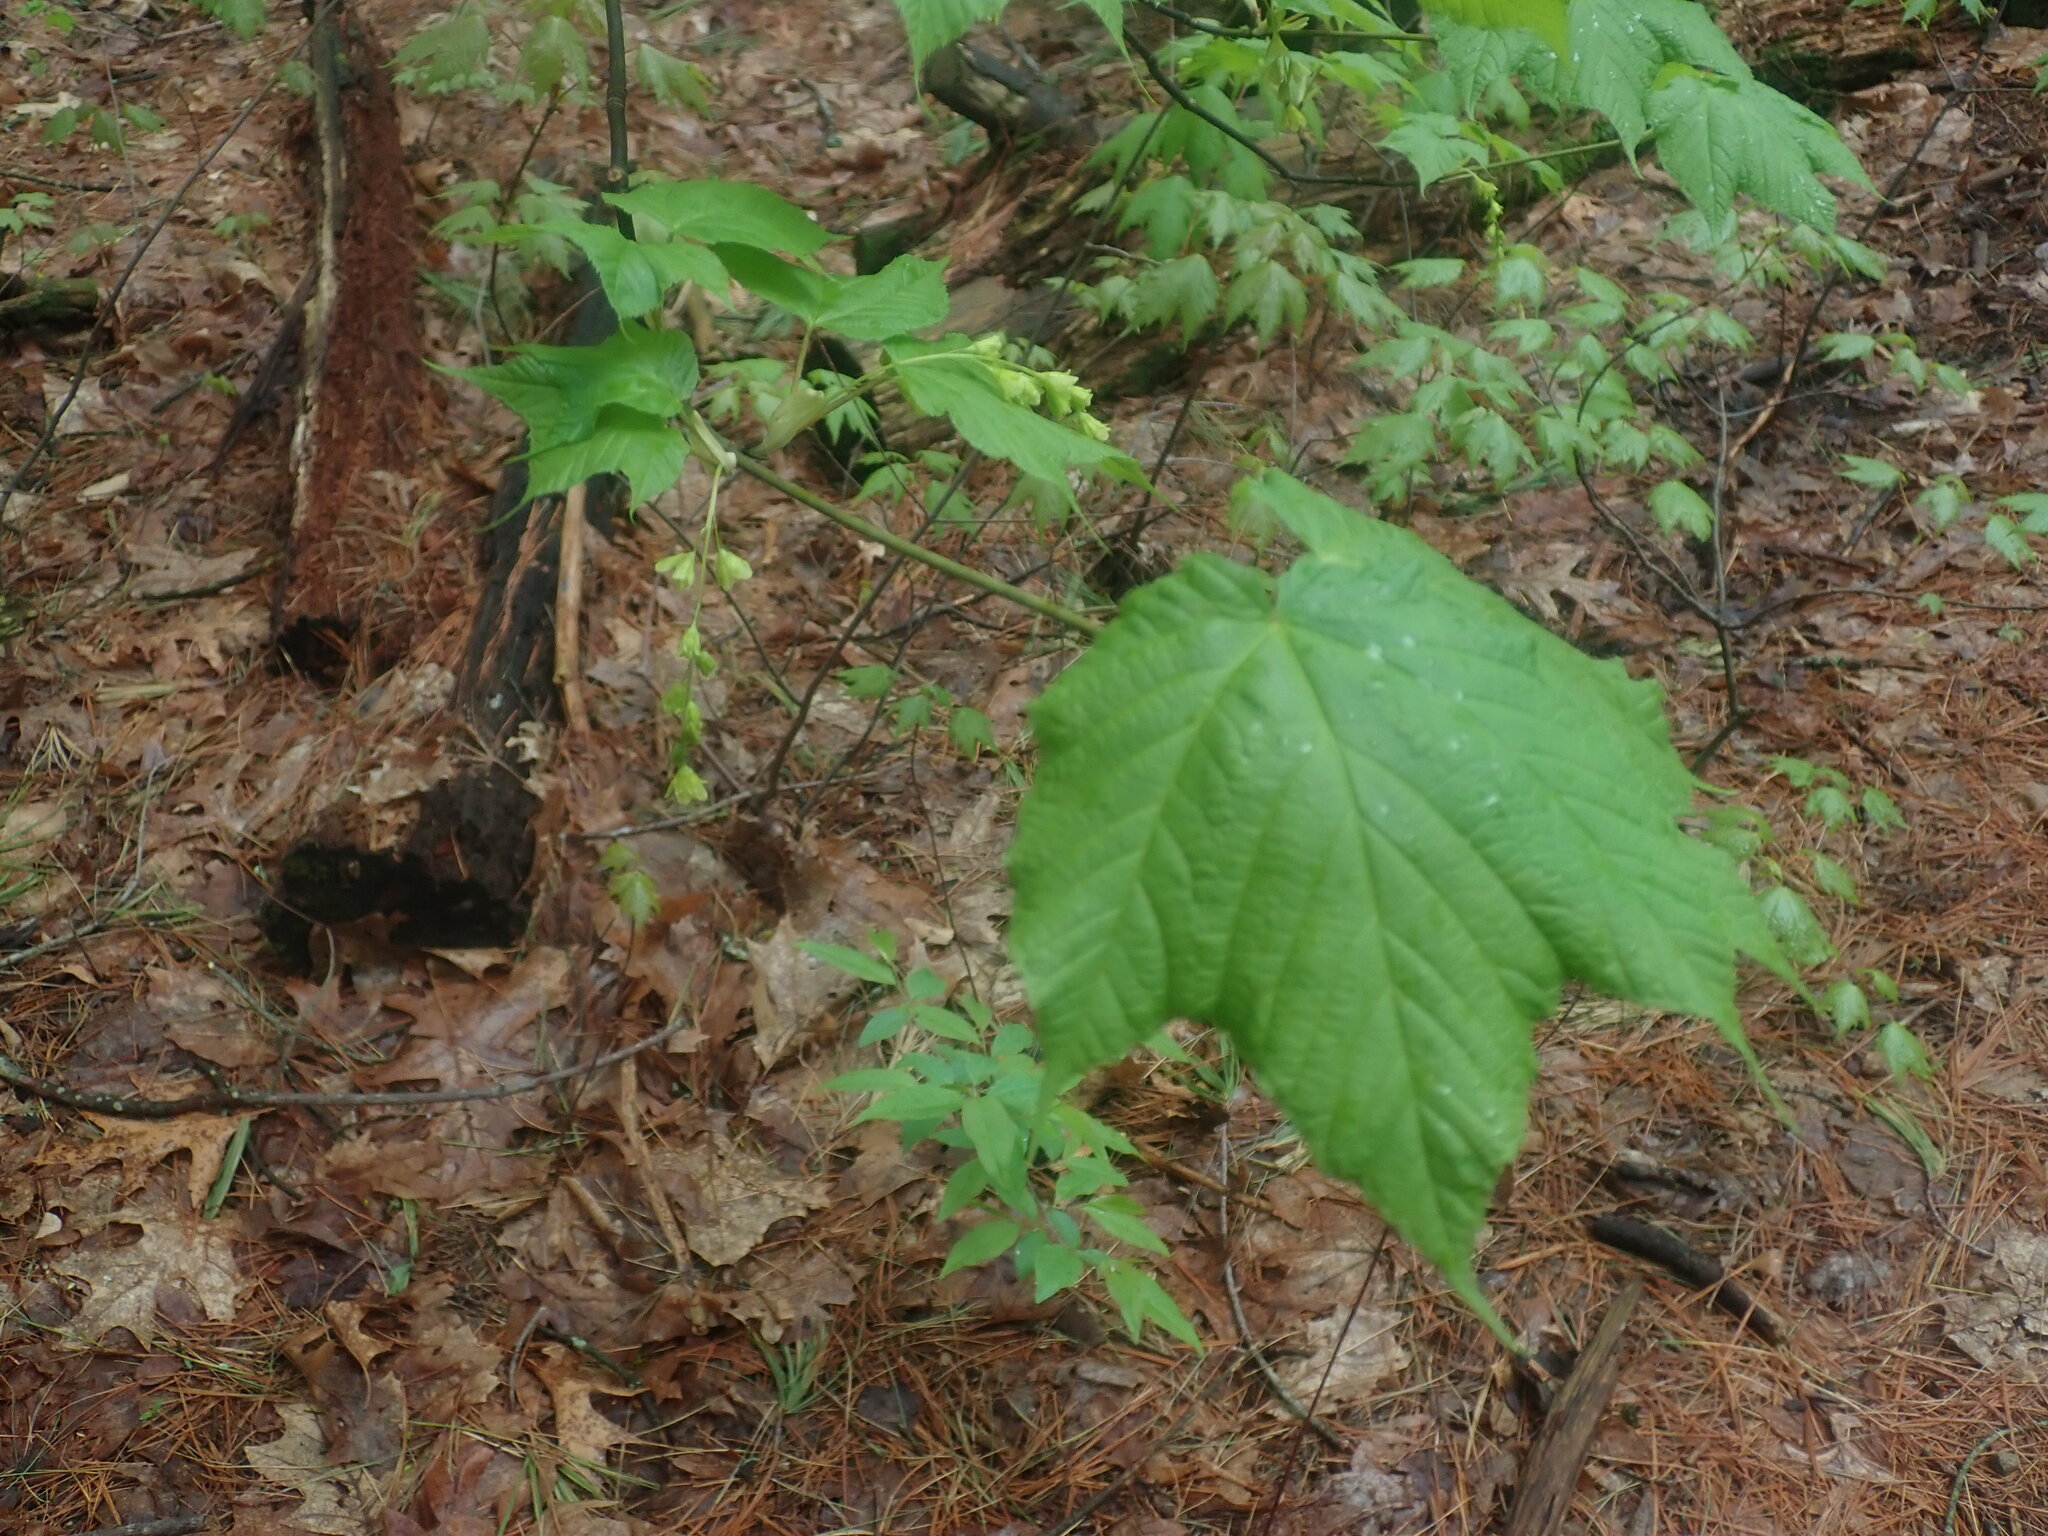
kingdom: Plantae
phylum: Tracheophyta
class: Magnoliopsida
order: Sapindales
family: Sapindaceae
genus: Acer
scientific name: Acer pensylvanicum
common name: Moosewood
